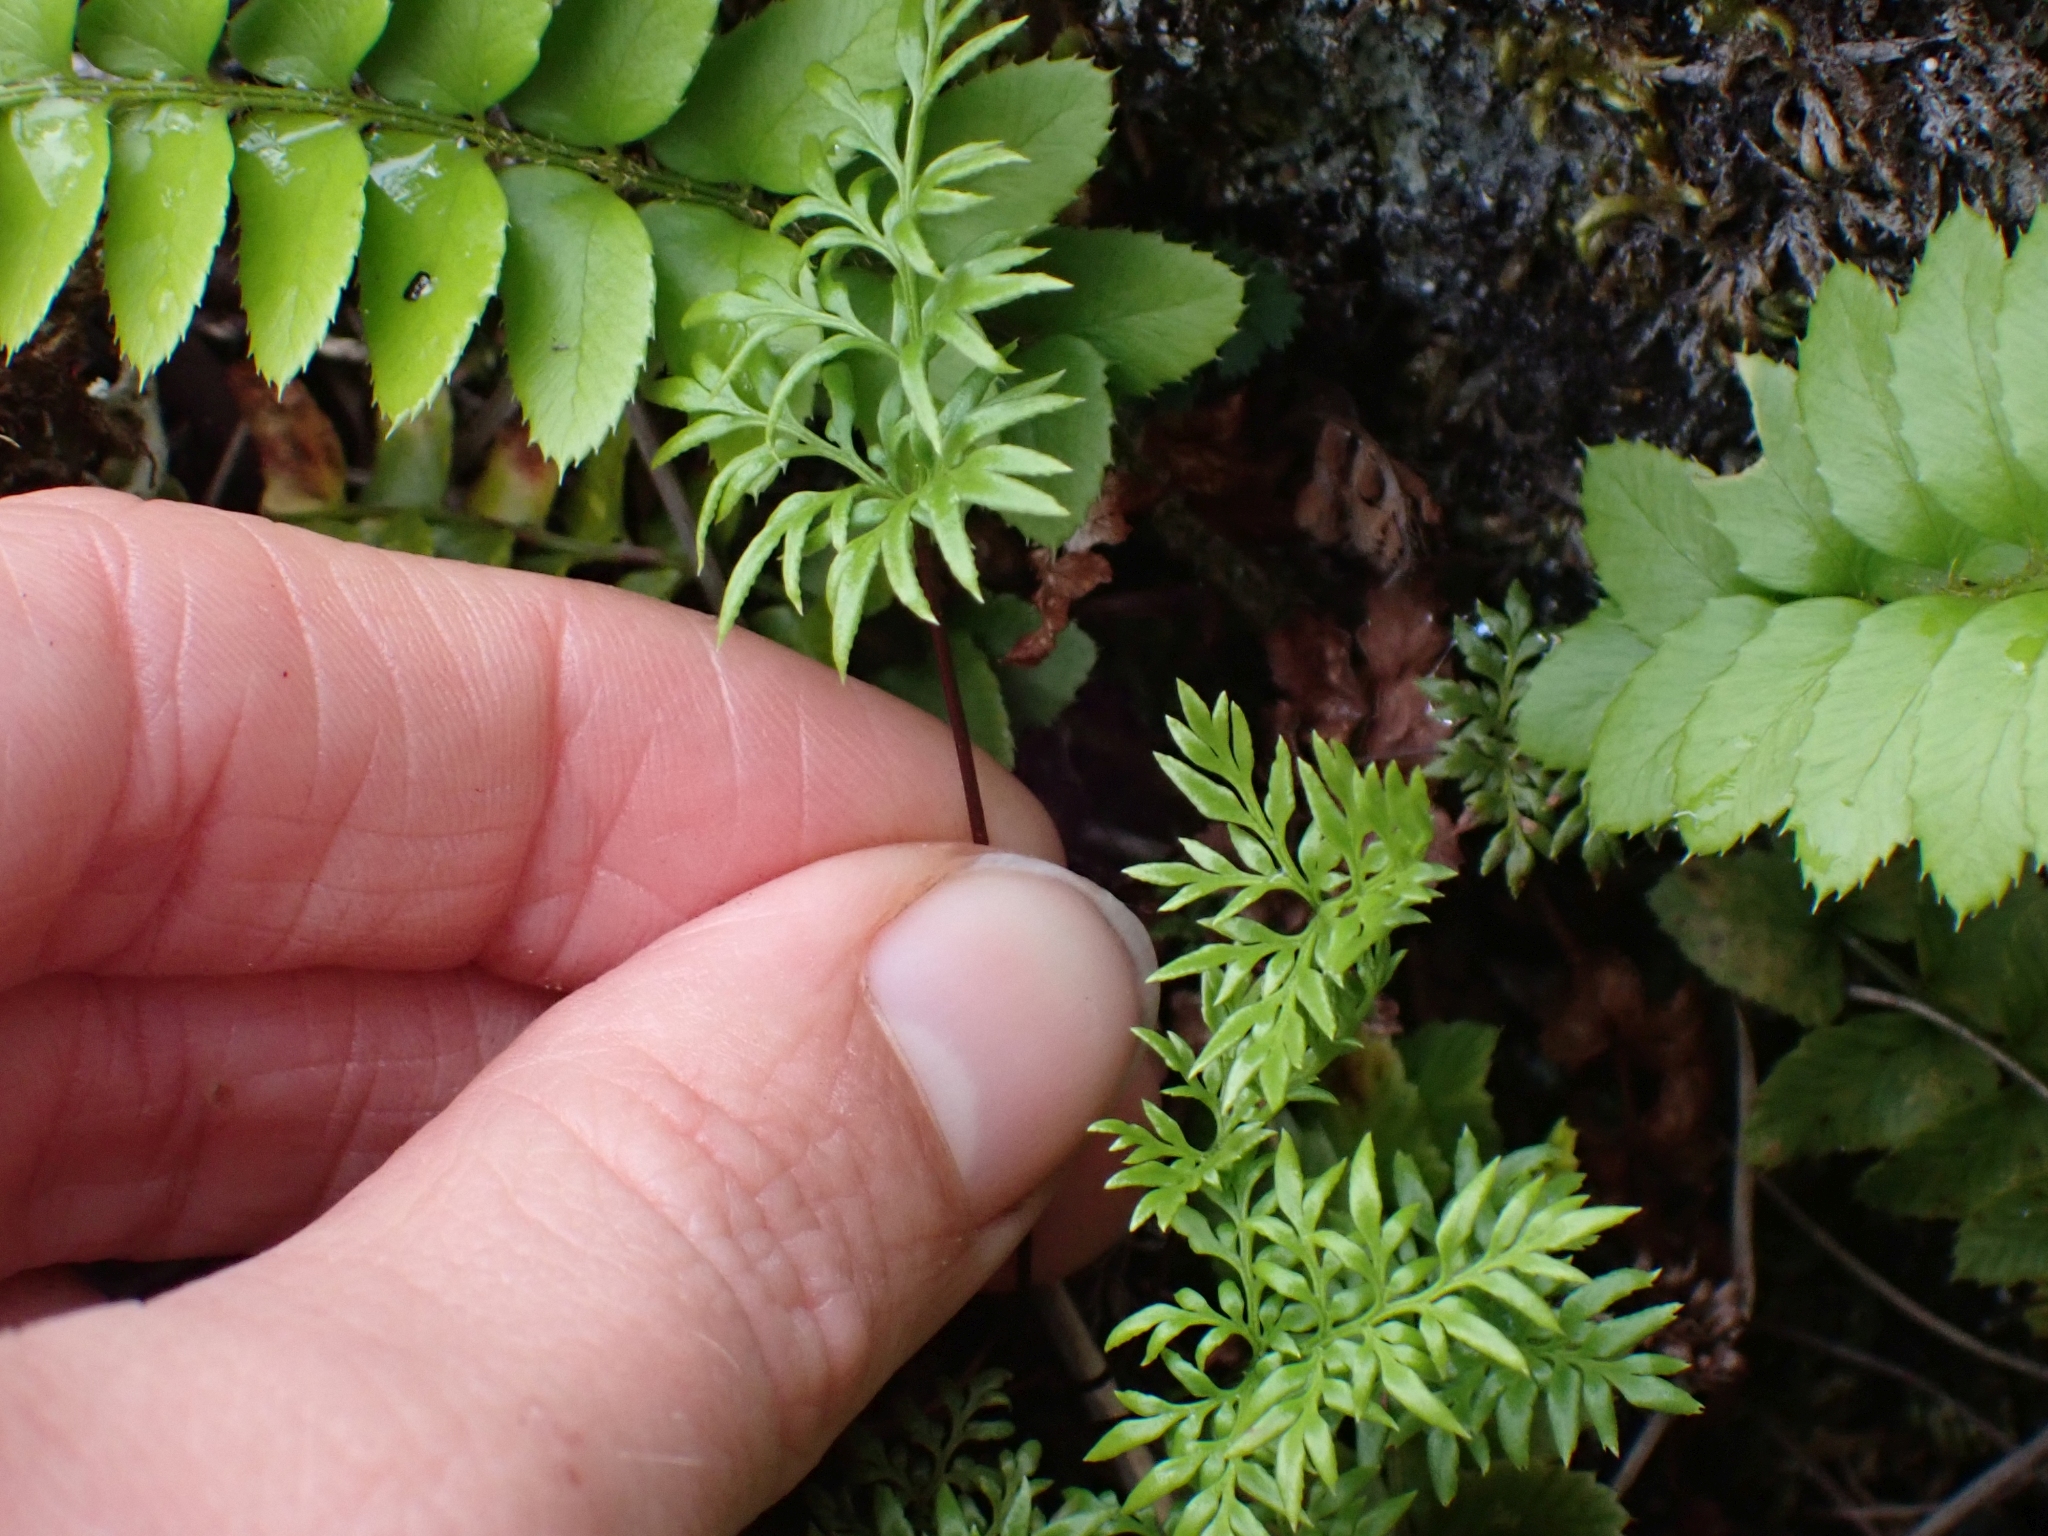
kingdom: Plantae
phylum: Tracheophyta
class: Polypodiopsida
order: Polypodiales
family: Pteridaceae
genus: Aspidotis
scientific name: Aspidotis densa
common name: Indian's dream
